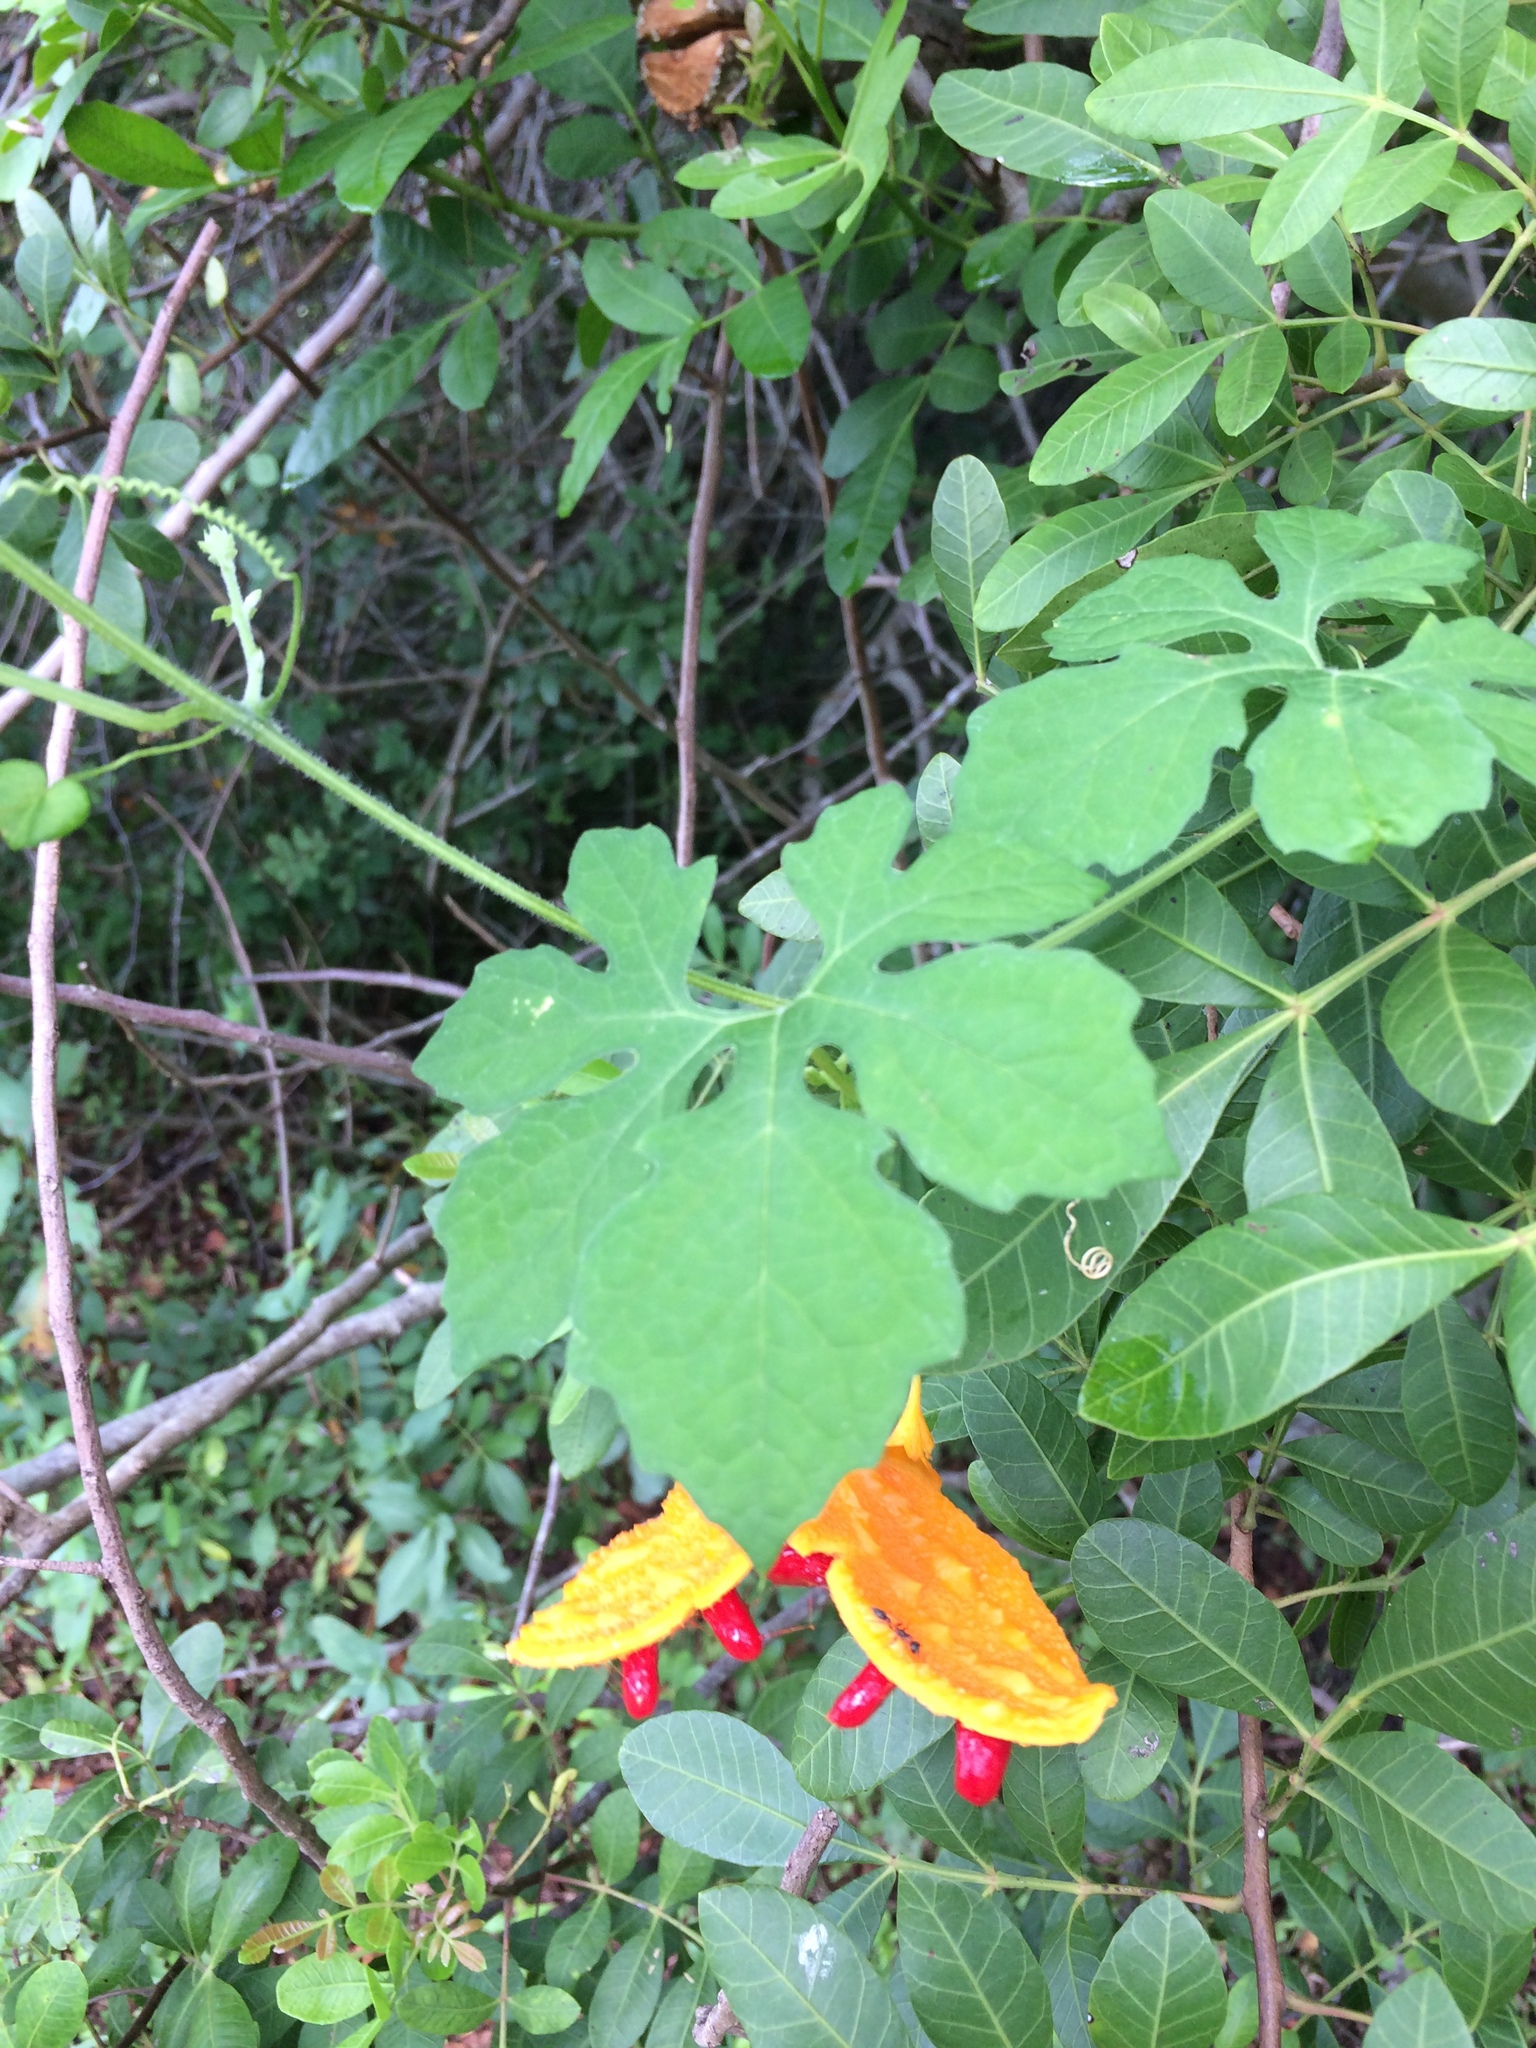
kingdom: Plantae
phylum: Tracheophyta
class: Magnoliopsida
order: Cucurbitales
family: Cucurbitaceae
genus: Momordica
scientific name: Momordica charantia
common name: Balsampear
